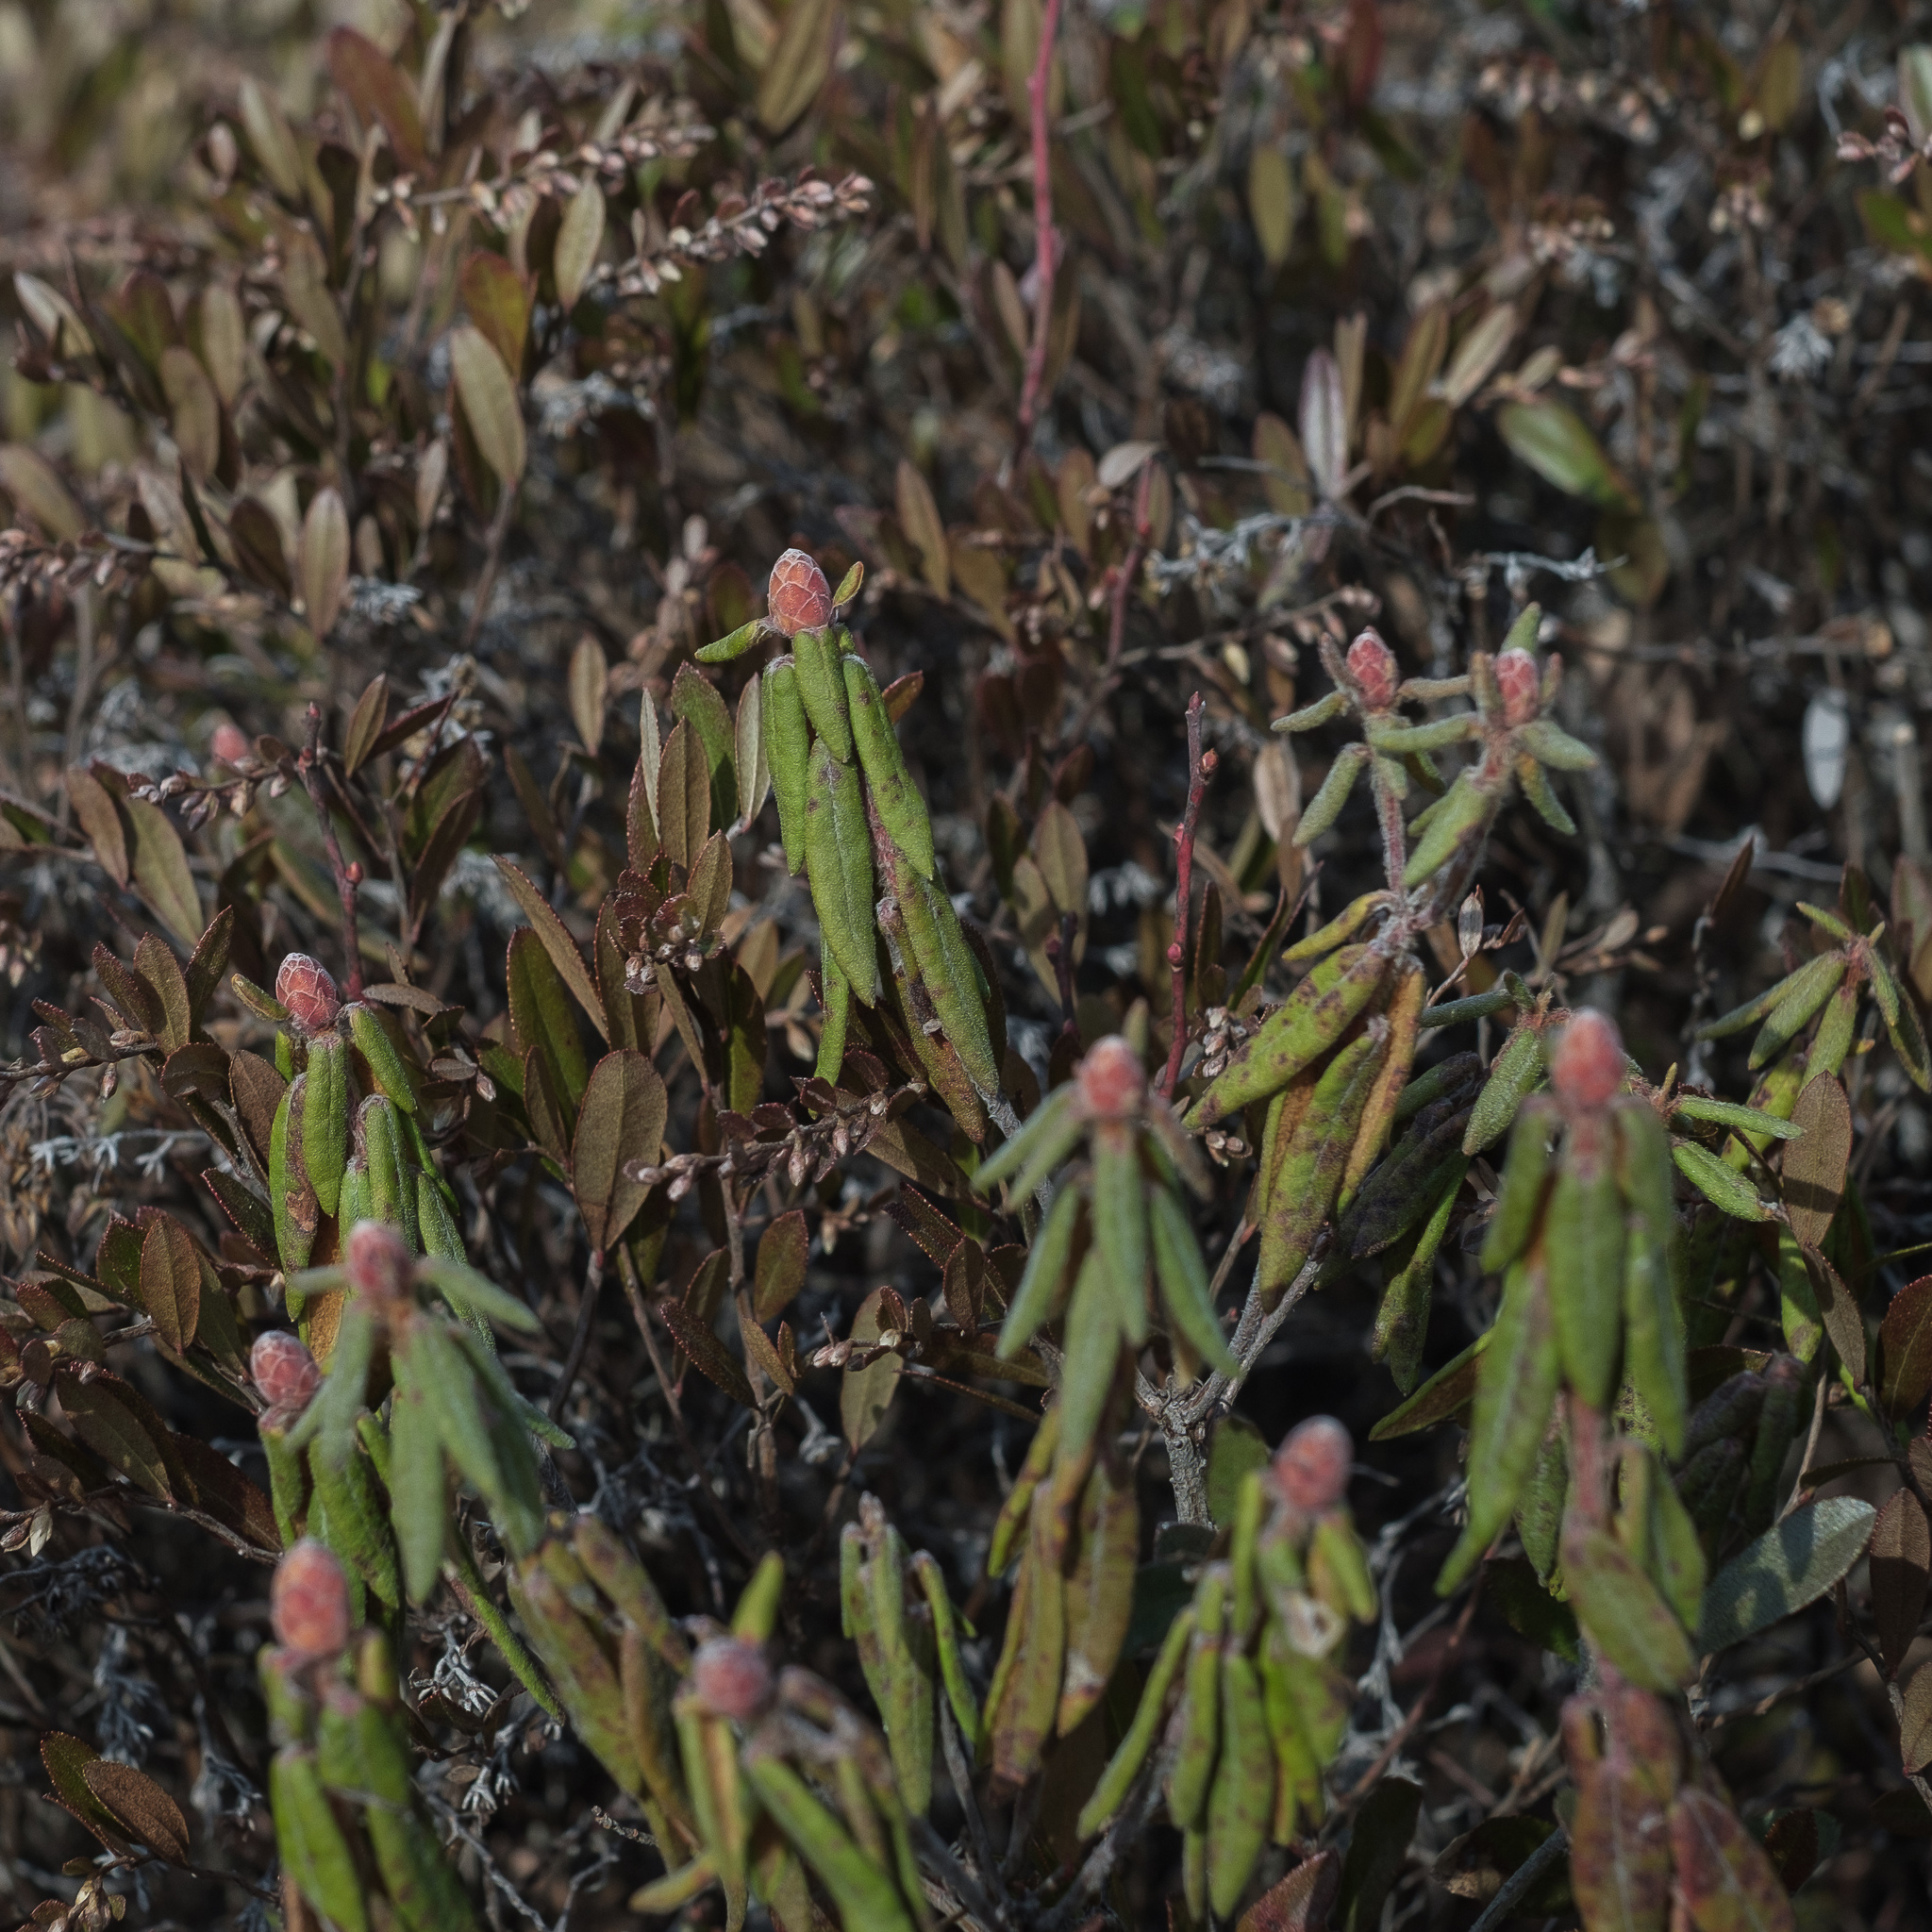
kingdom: Plantae
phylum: Tracheophyta
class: Magnoliopsida
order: Ericales
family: Ericaceae
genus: Rhododendron
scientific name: Rhododendron groenlandicum
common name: Bog labrador tea
